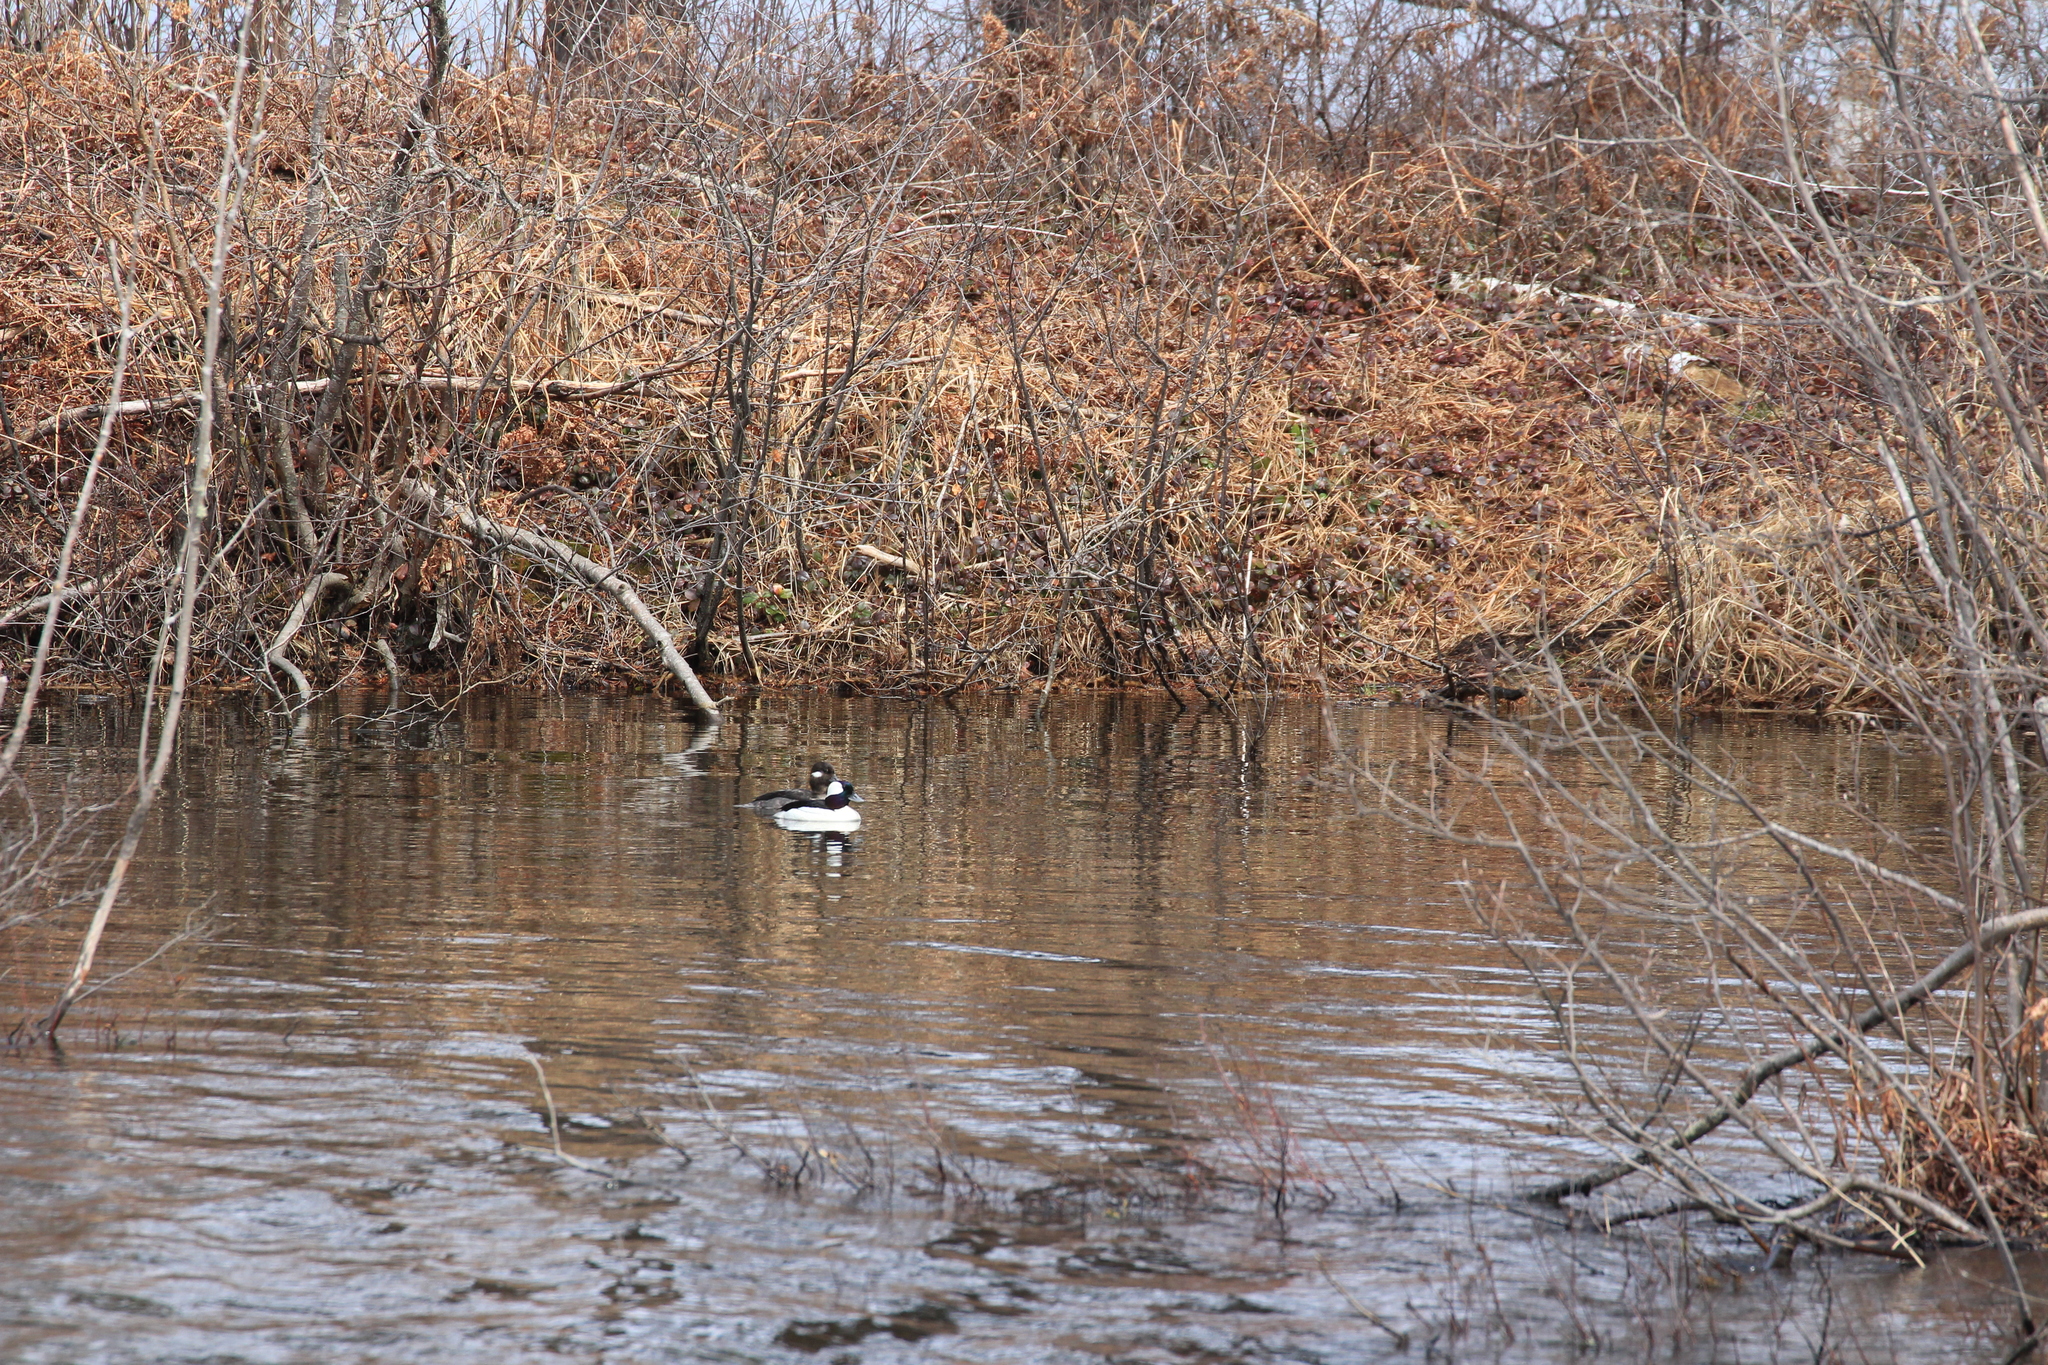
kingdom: Animalia
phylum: Chordata
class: Aves
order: Anseriformes
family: Anatidae
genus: Bucephala
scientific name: Bucephala albeola
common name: Bufflehead
